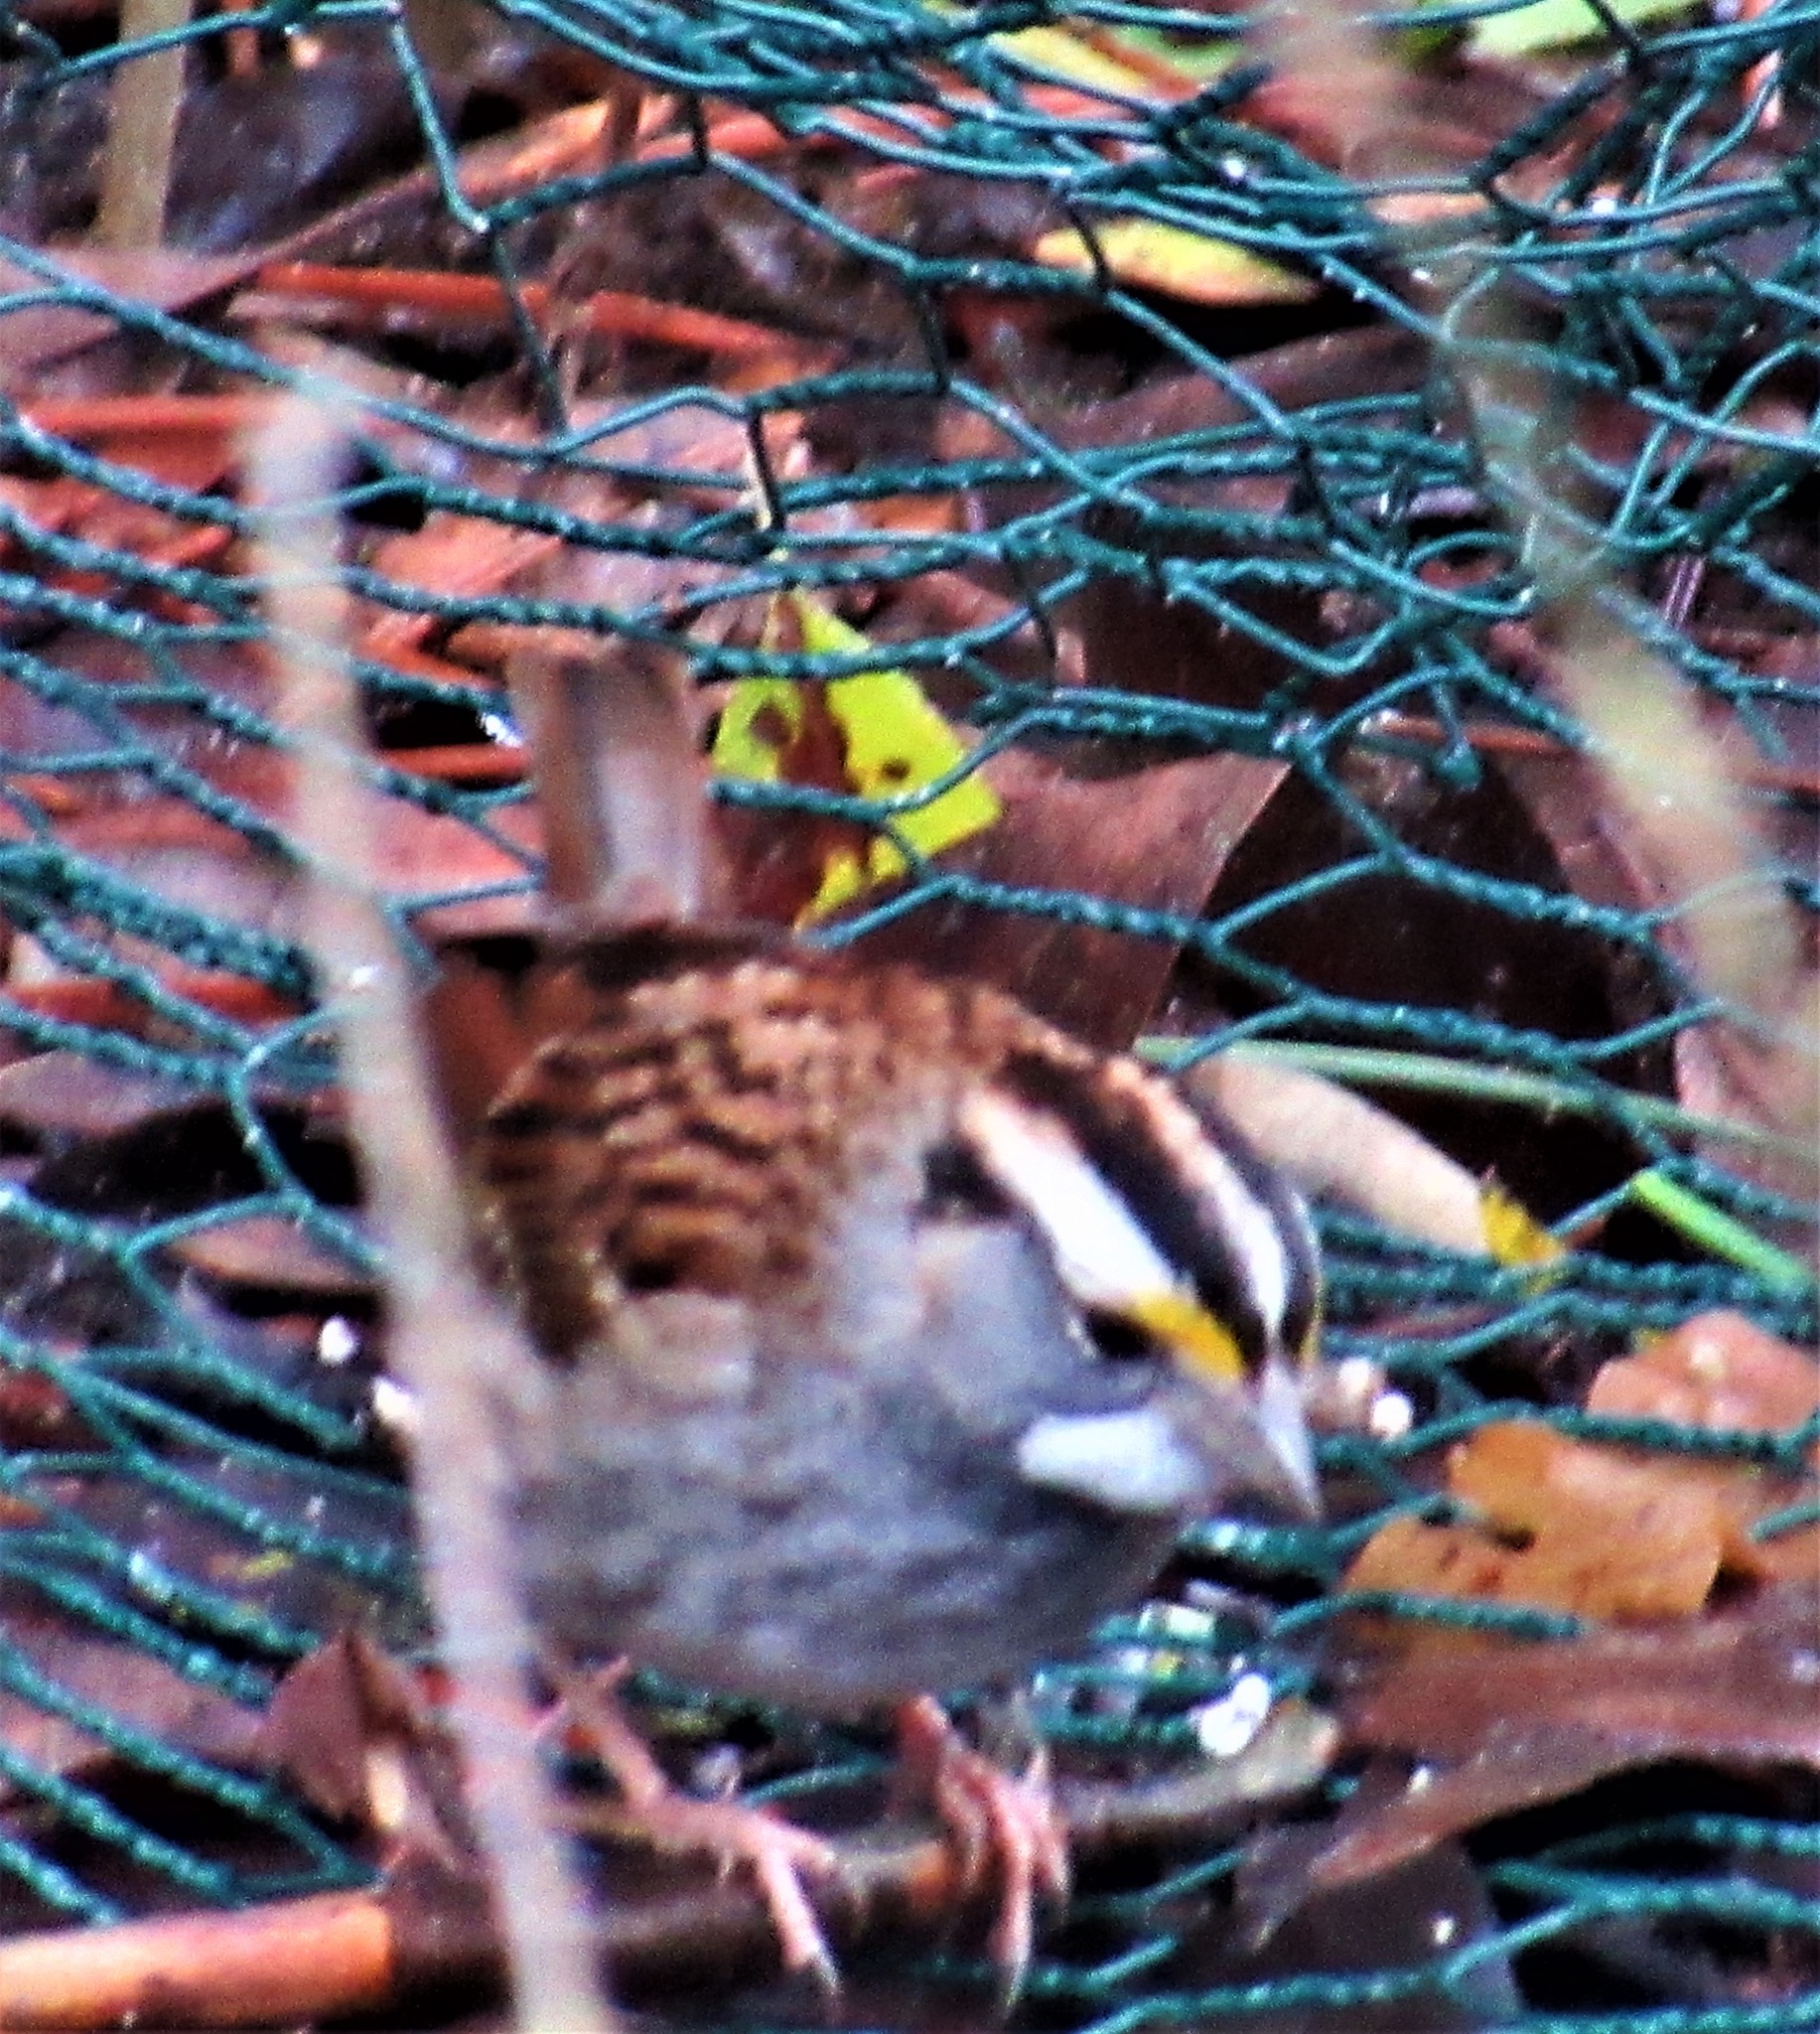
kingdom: Animalia
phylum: Chordata
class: Aves
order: Passeriformes
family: Passerellidae
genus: Zonotrichia
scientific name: Zonotrichia albicollis
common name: White-throated sparrow
